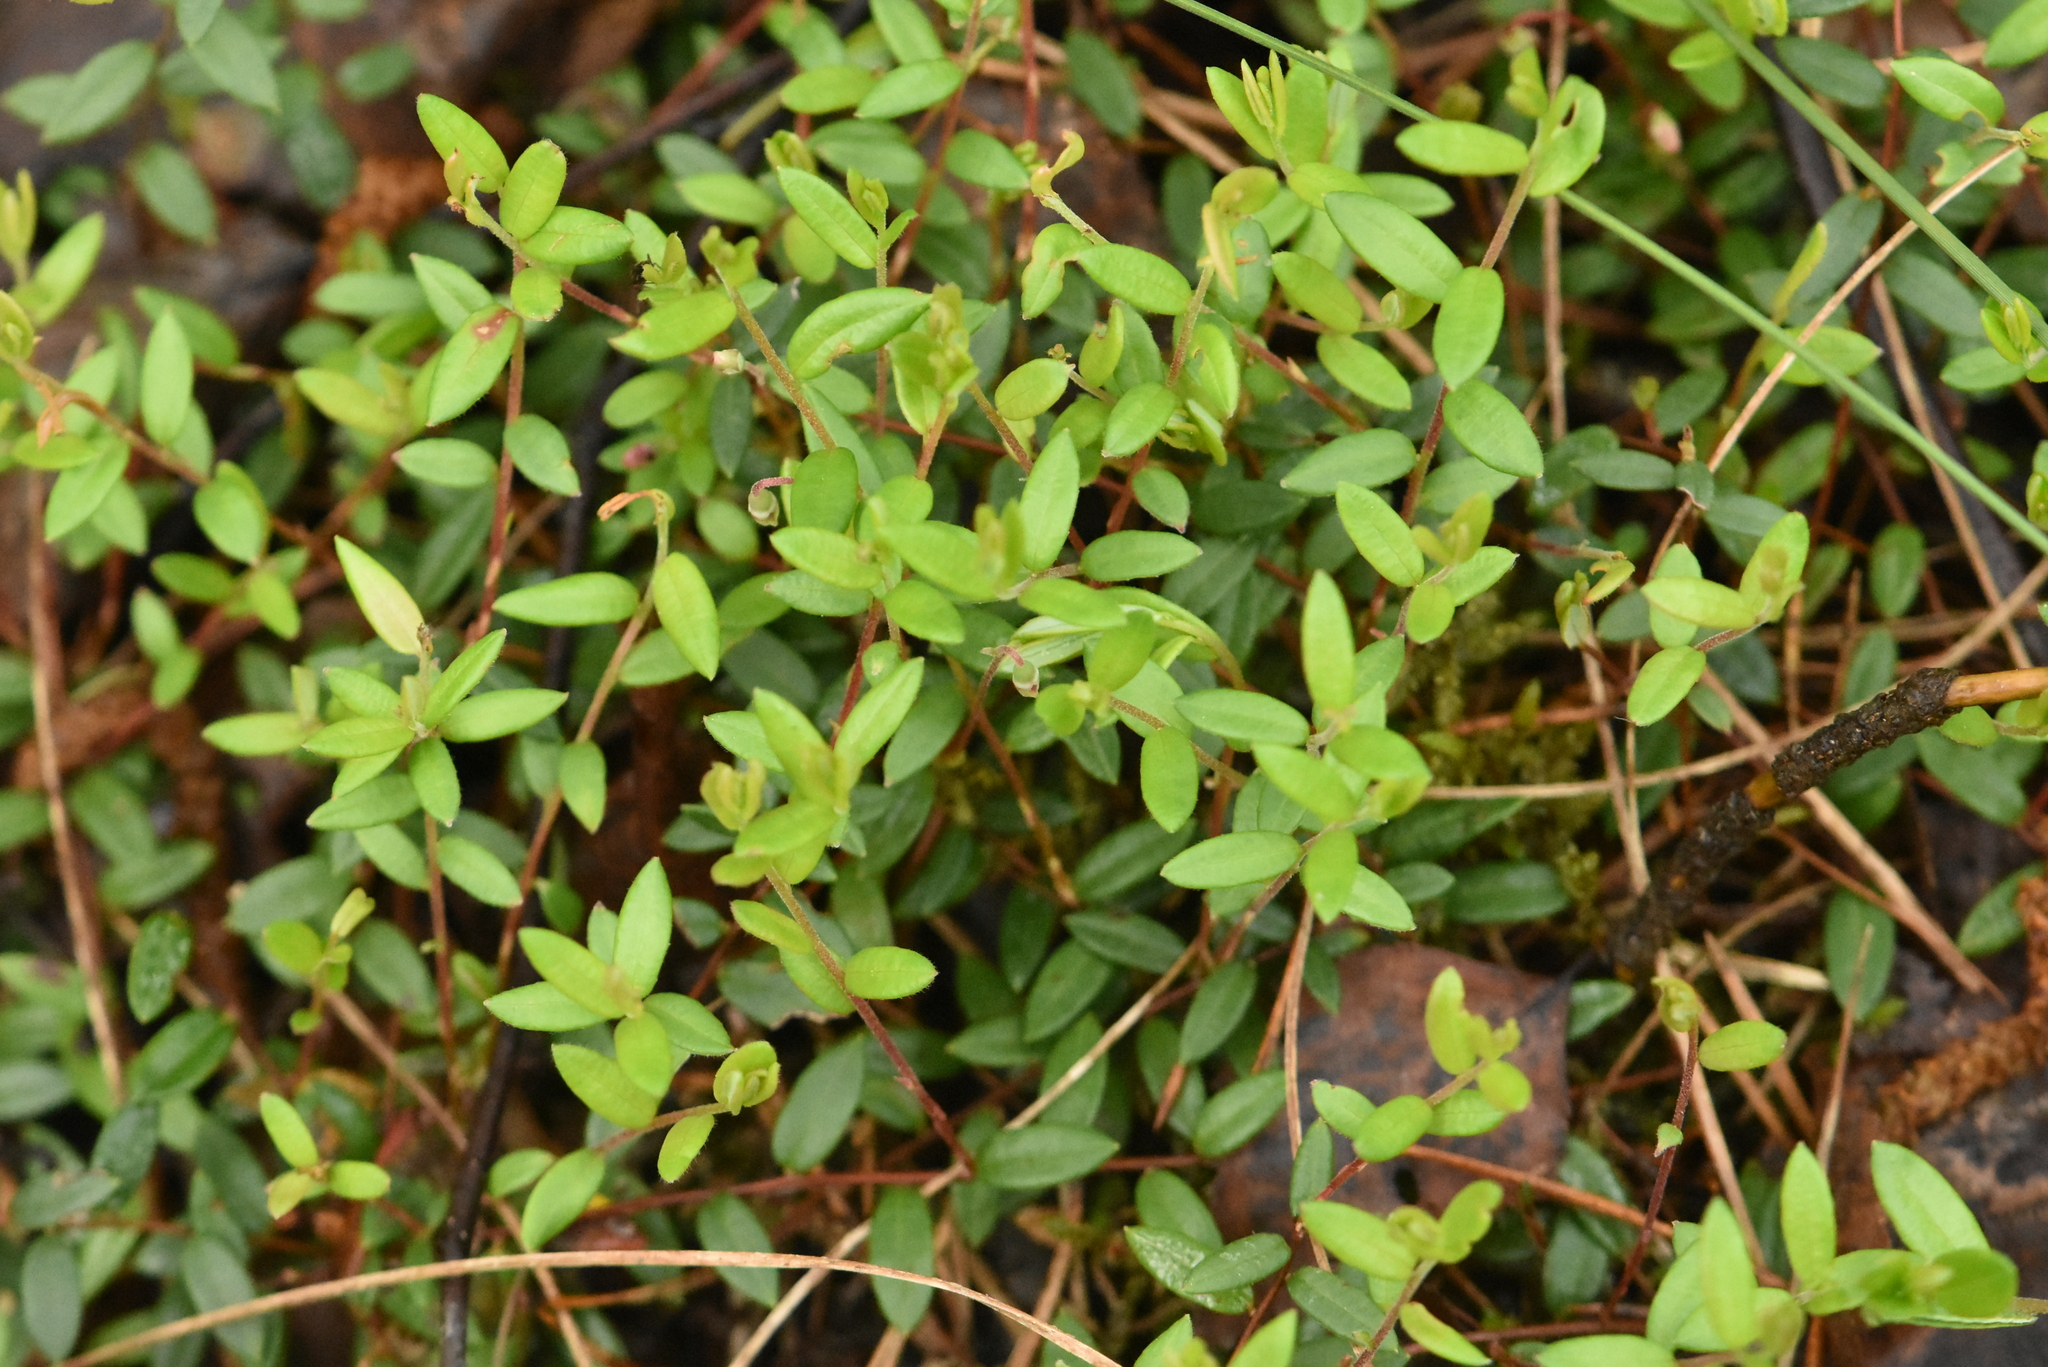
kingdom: Plantae
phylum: Tracheophyta
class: Magnoliopsida
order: Ericales
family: Ericaceae
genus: Vaccinium
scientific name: Vaccinium oxycoccos
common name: Cranberry
